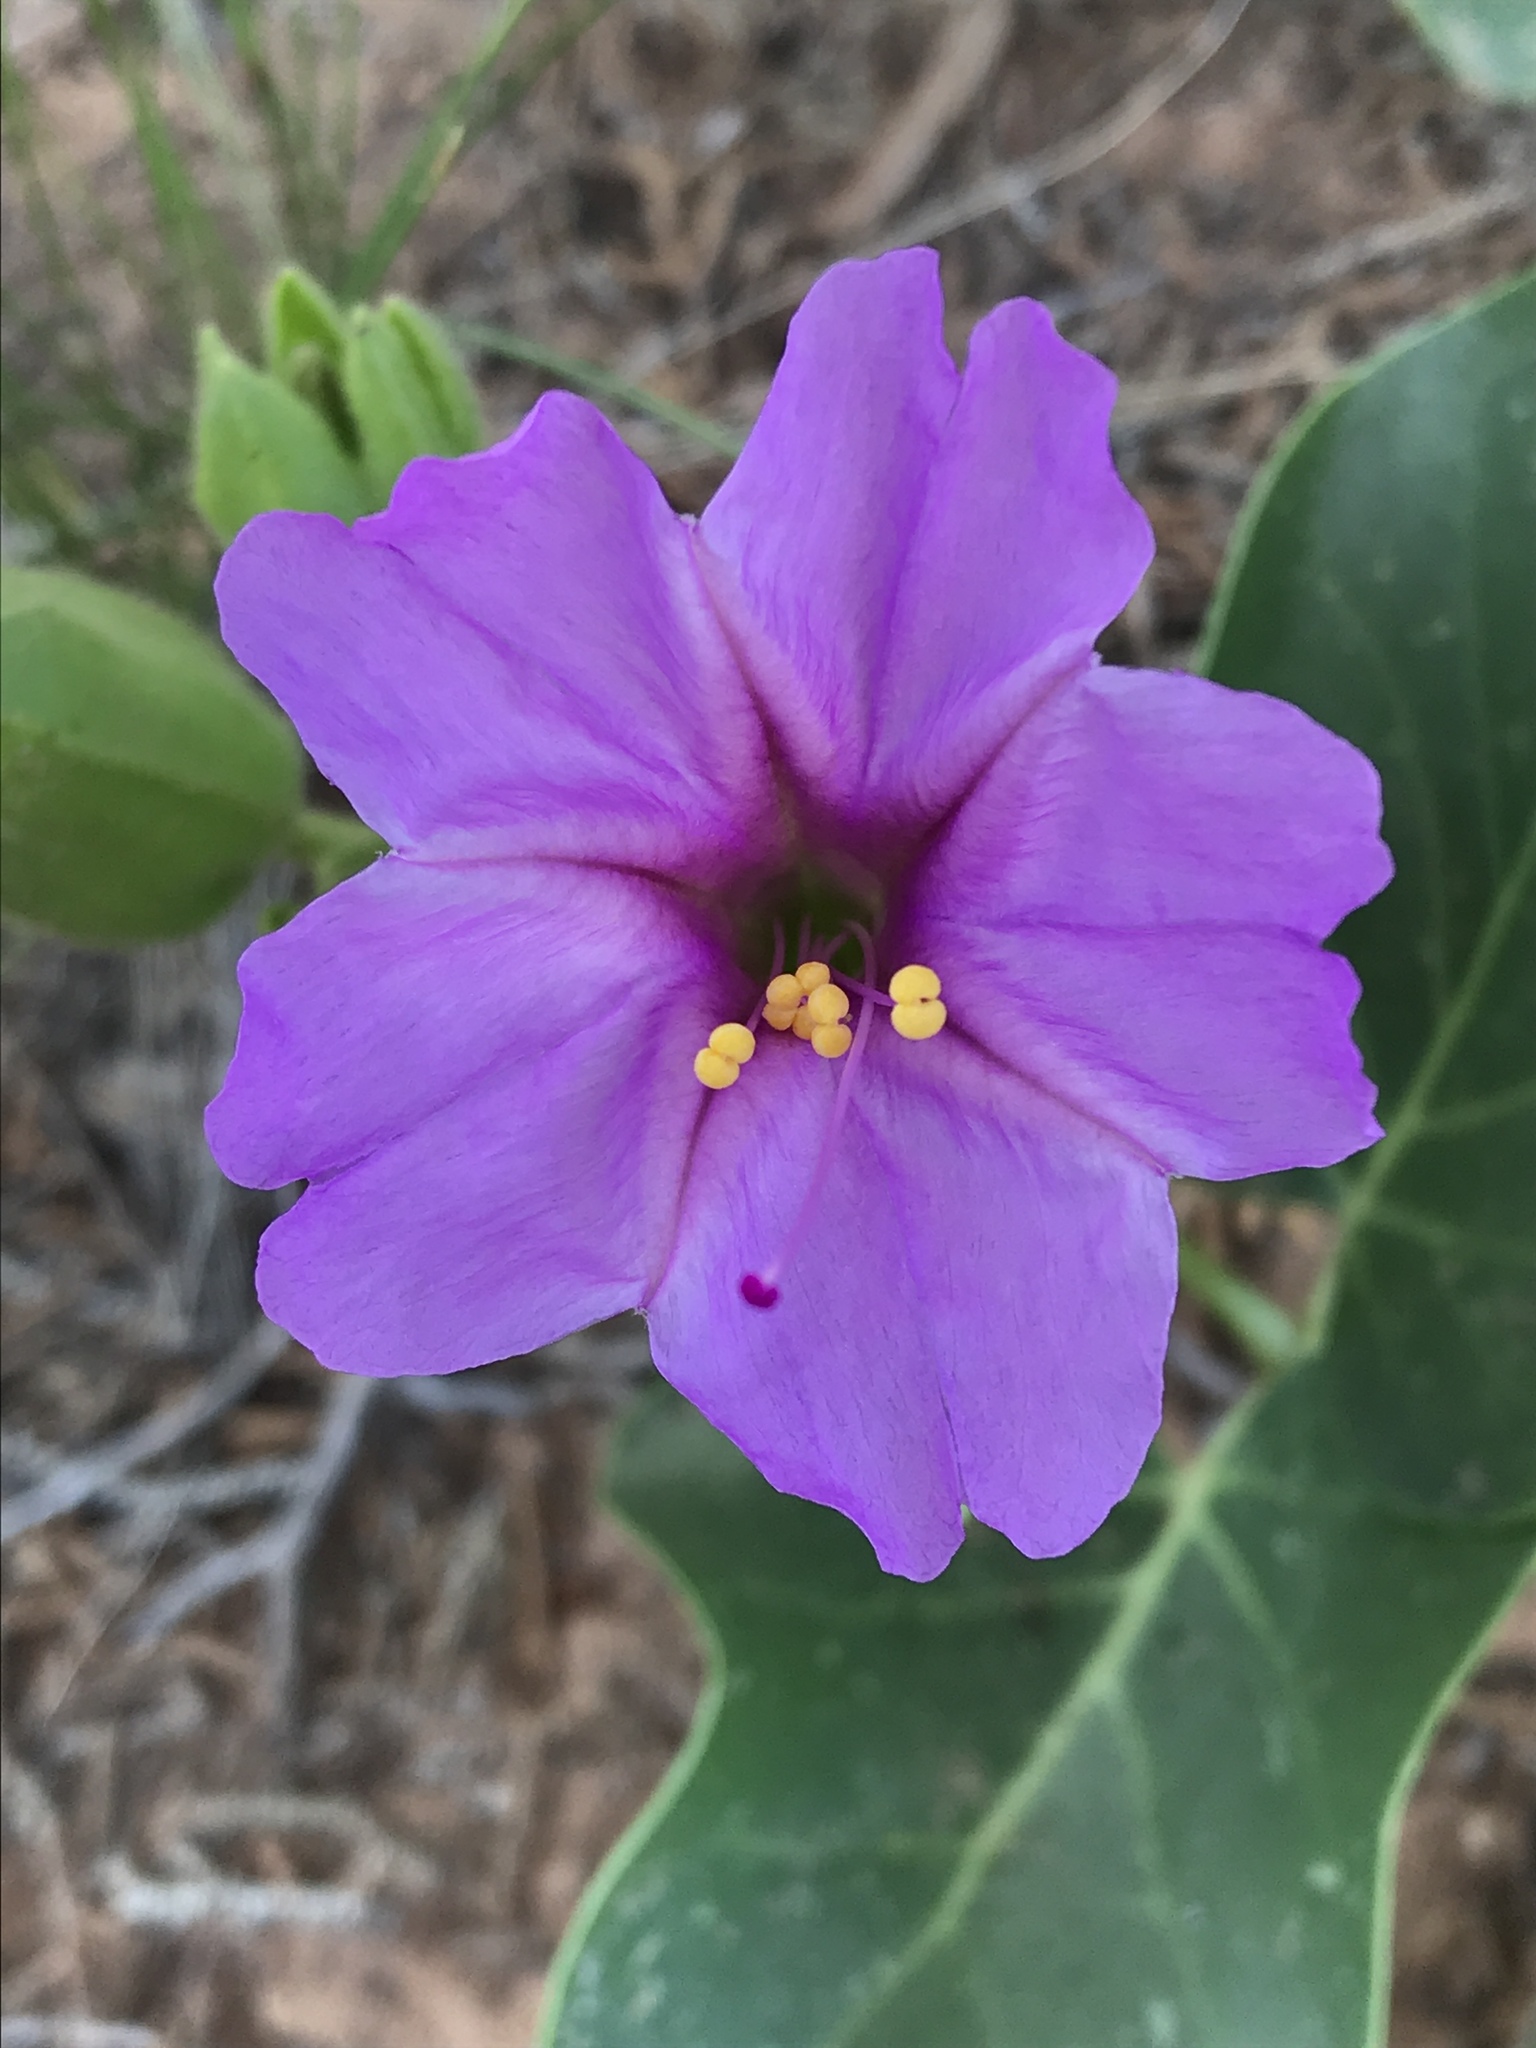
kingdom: Plantae
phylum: Tracheophyta
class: Magnoliopsida
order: Caryophyllales
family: Nyctaginaceae
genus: Mirabilis
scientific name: Mirabilis multiflora
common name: Froebel's four-o'clock
